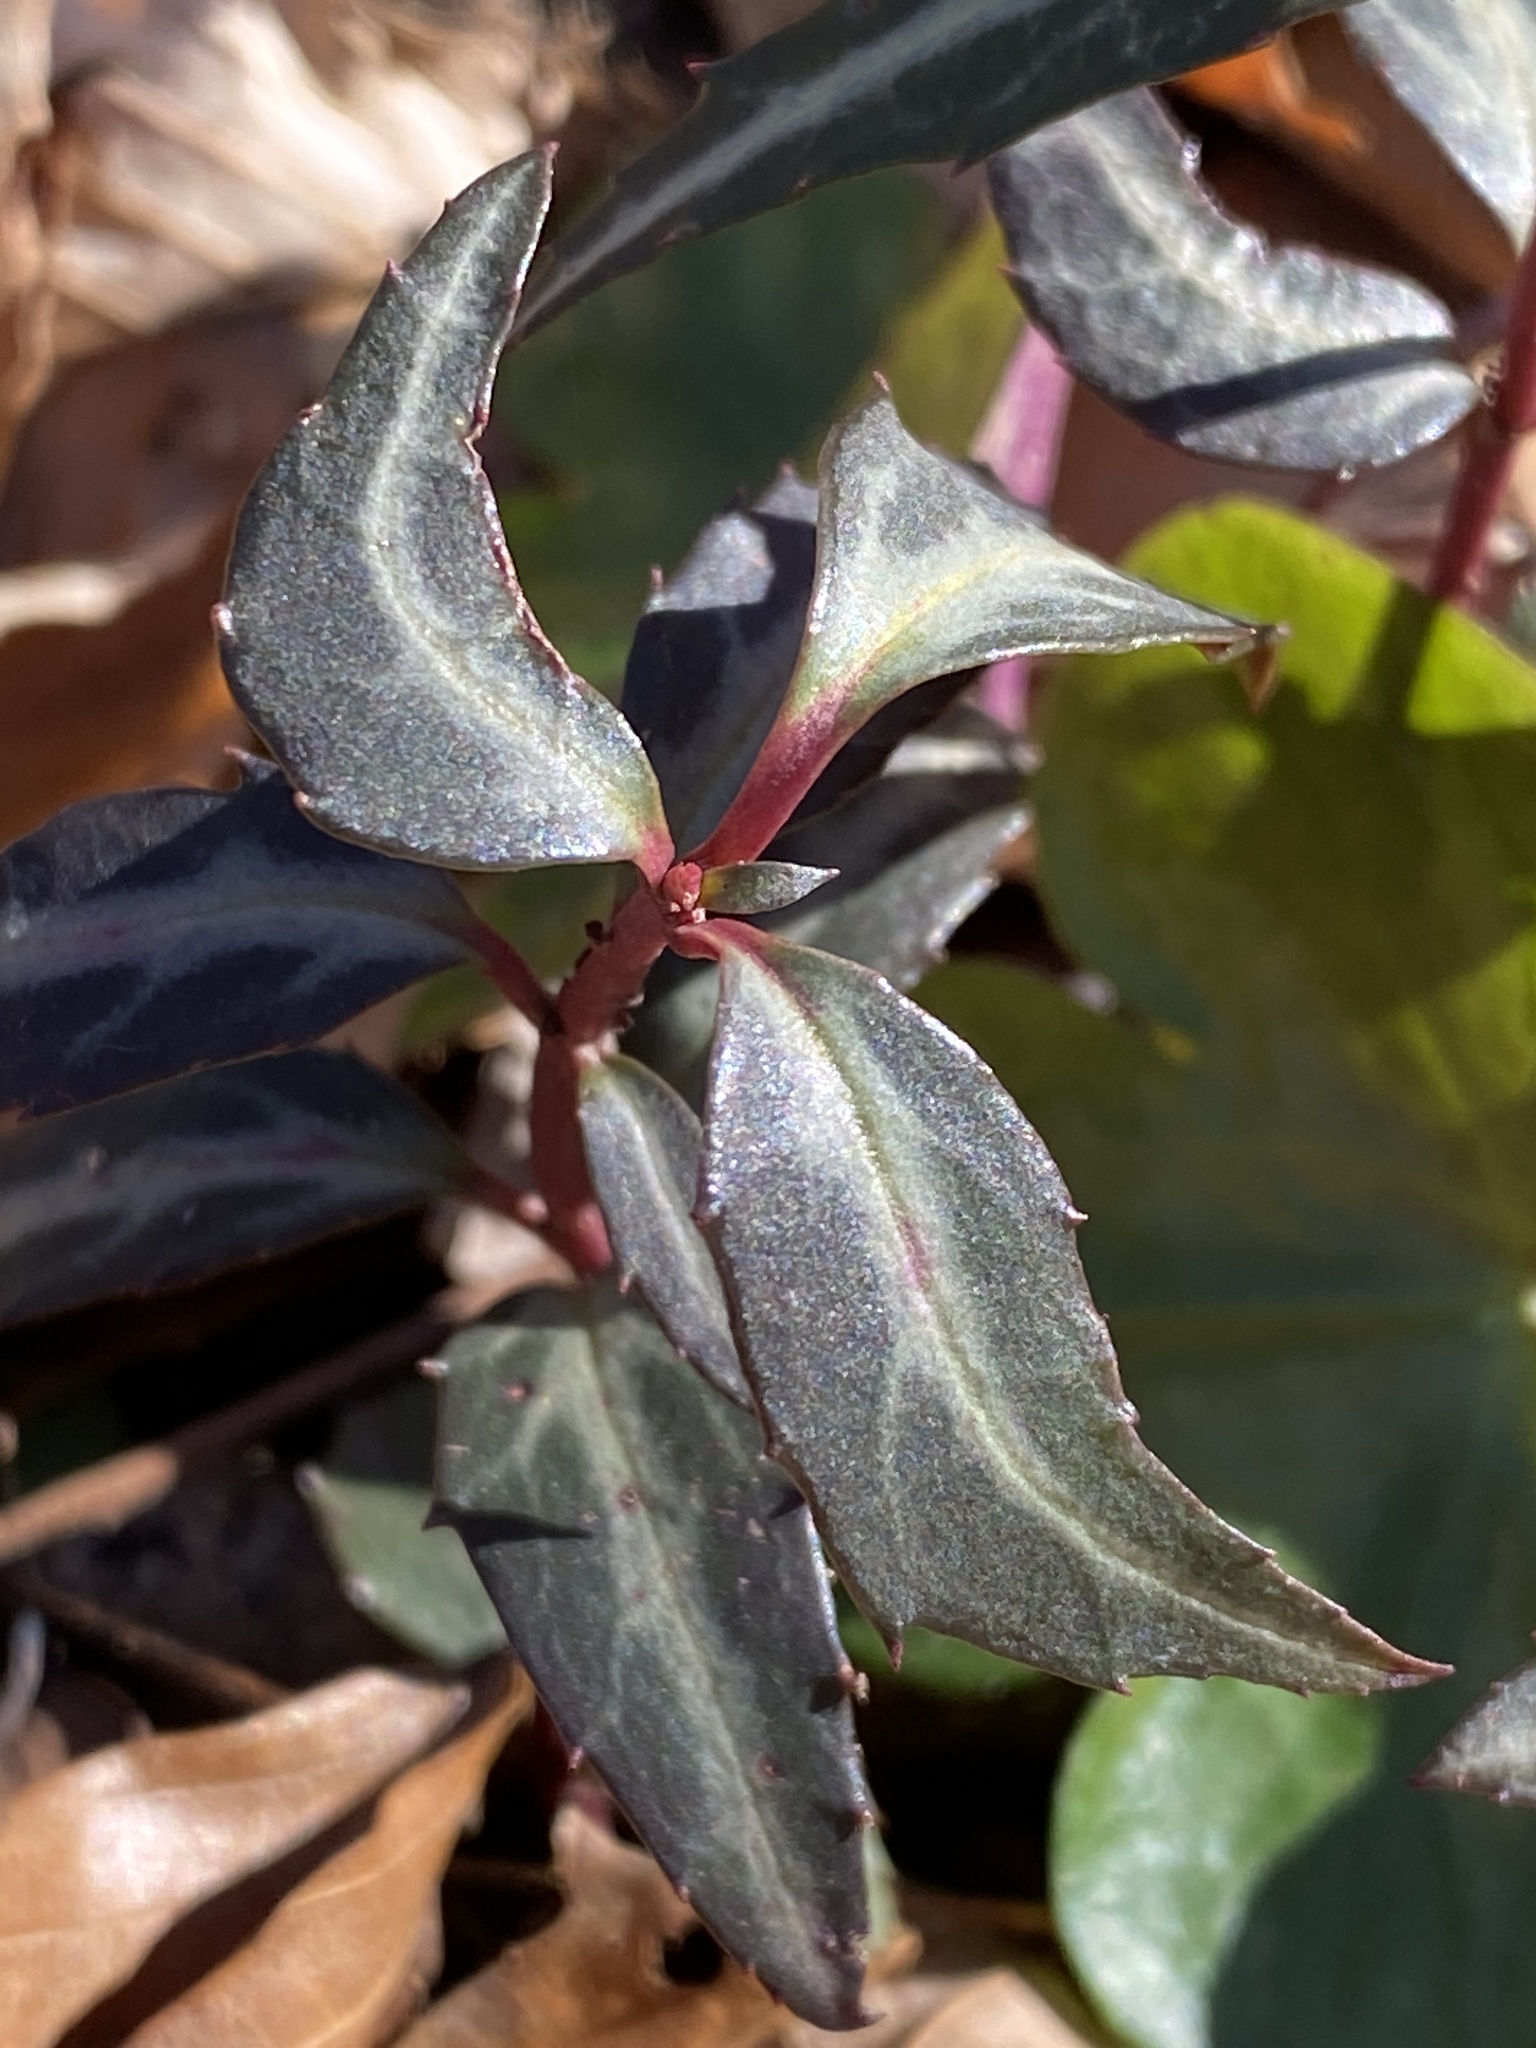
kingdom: Plantae
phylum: Tracheophyta
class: Magnoliopsida
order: Ericales
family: Ericaceae
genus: Chimaphila
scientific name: Chimaphila maculata
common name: Spotted pipsissewa
